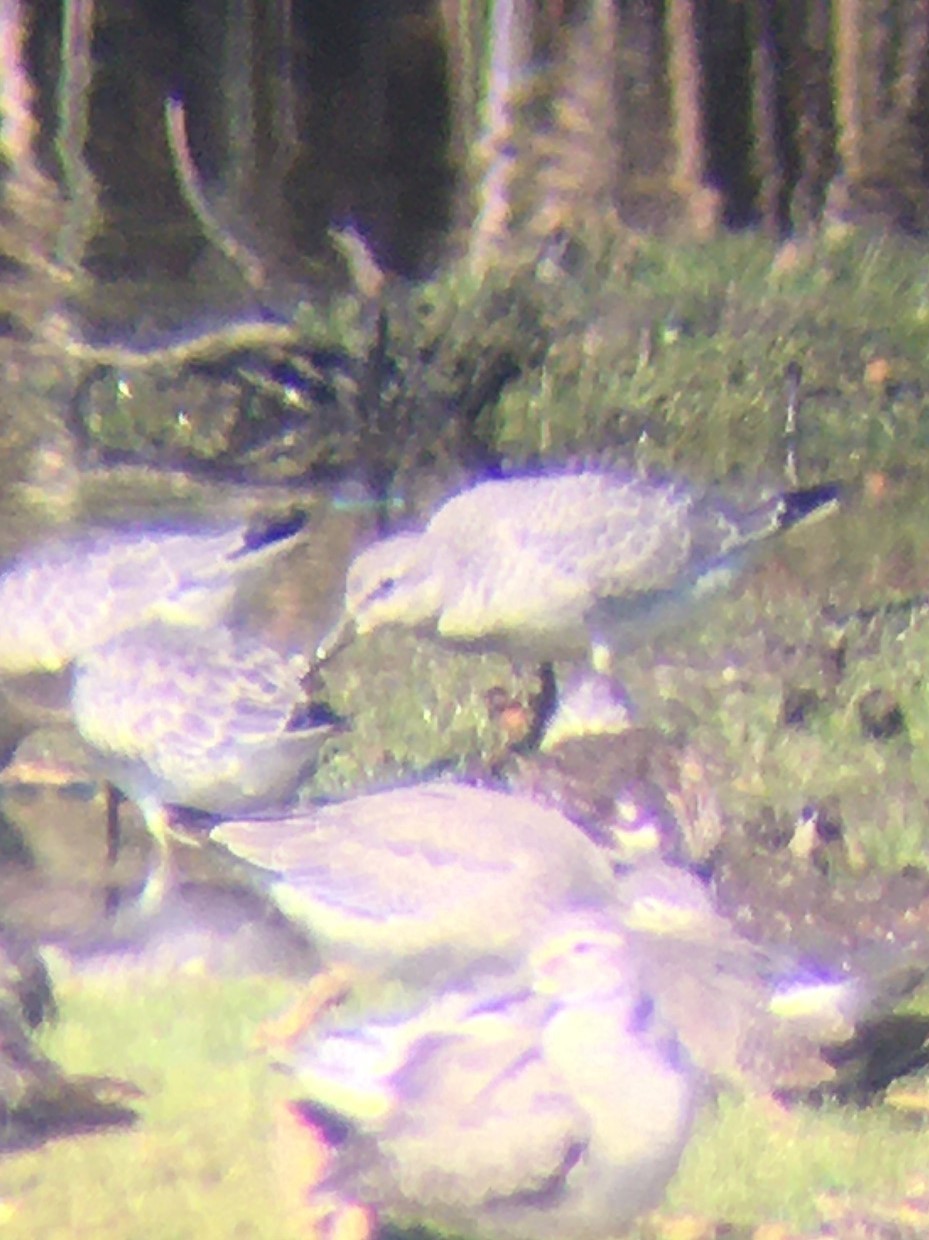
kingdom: Animalia
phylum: Chordata
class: Aves
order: Charadriiformes
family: Scolopacidae
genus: Calidris
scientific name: Calidris canutus
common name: Red knot
